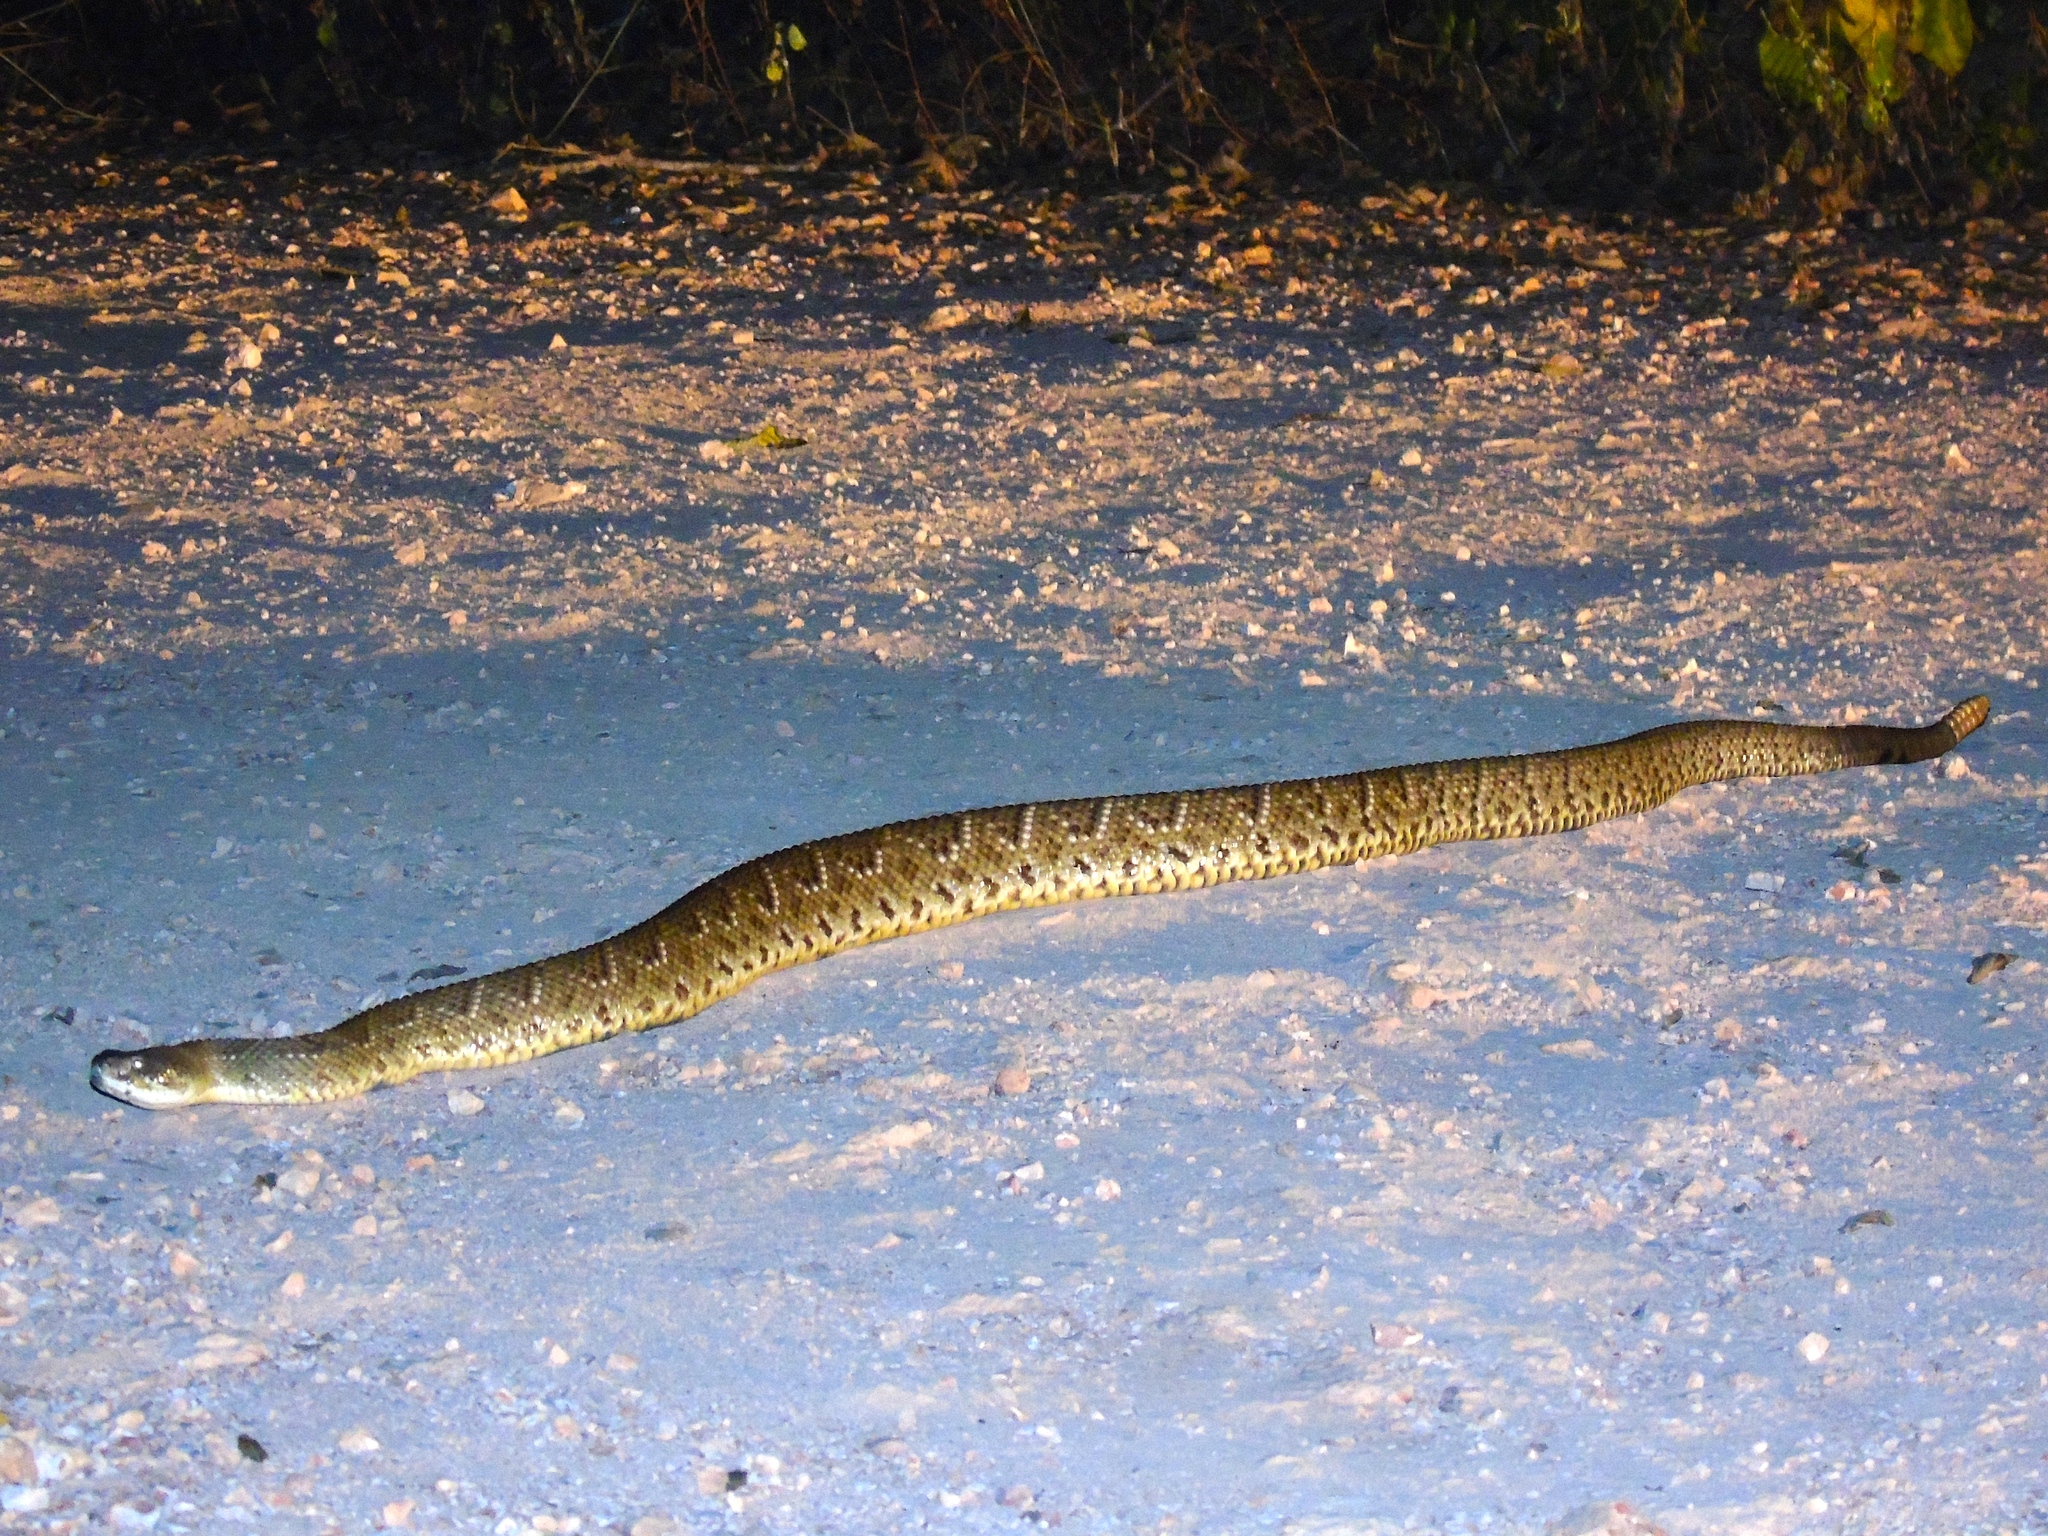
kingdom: Animalia
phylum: Chordata
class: Squamata
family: Viperidae
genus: Crotalus
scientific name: Crotalus basiliscus
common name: Basilisk rattlesnake
